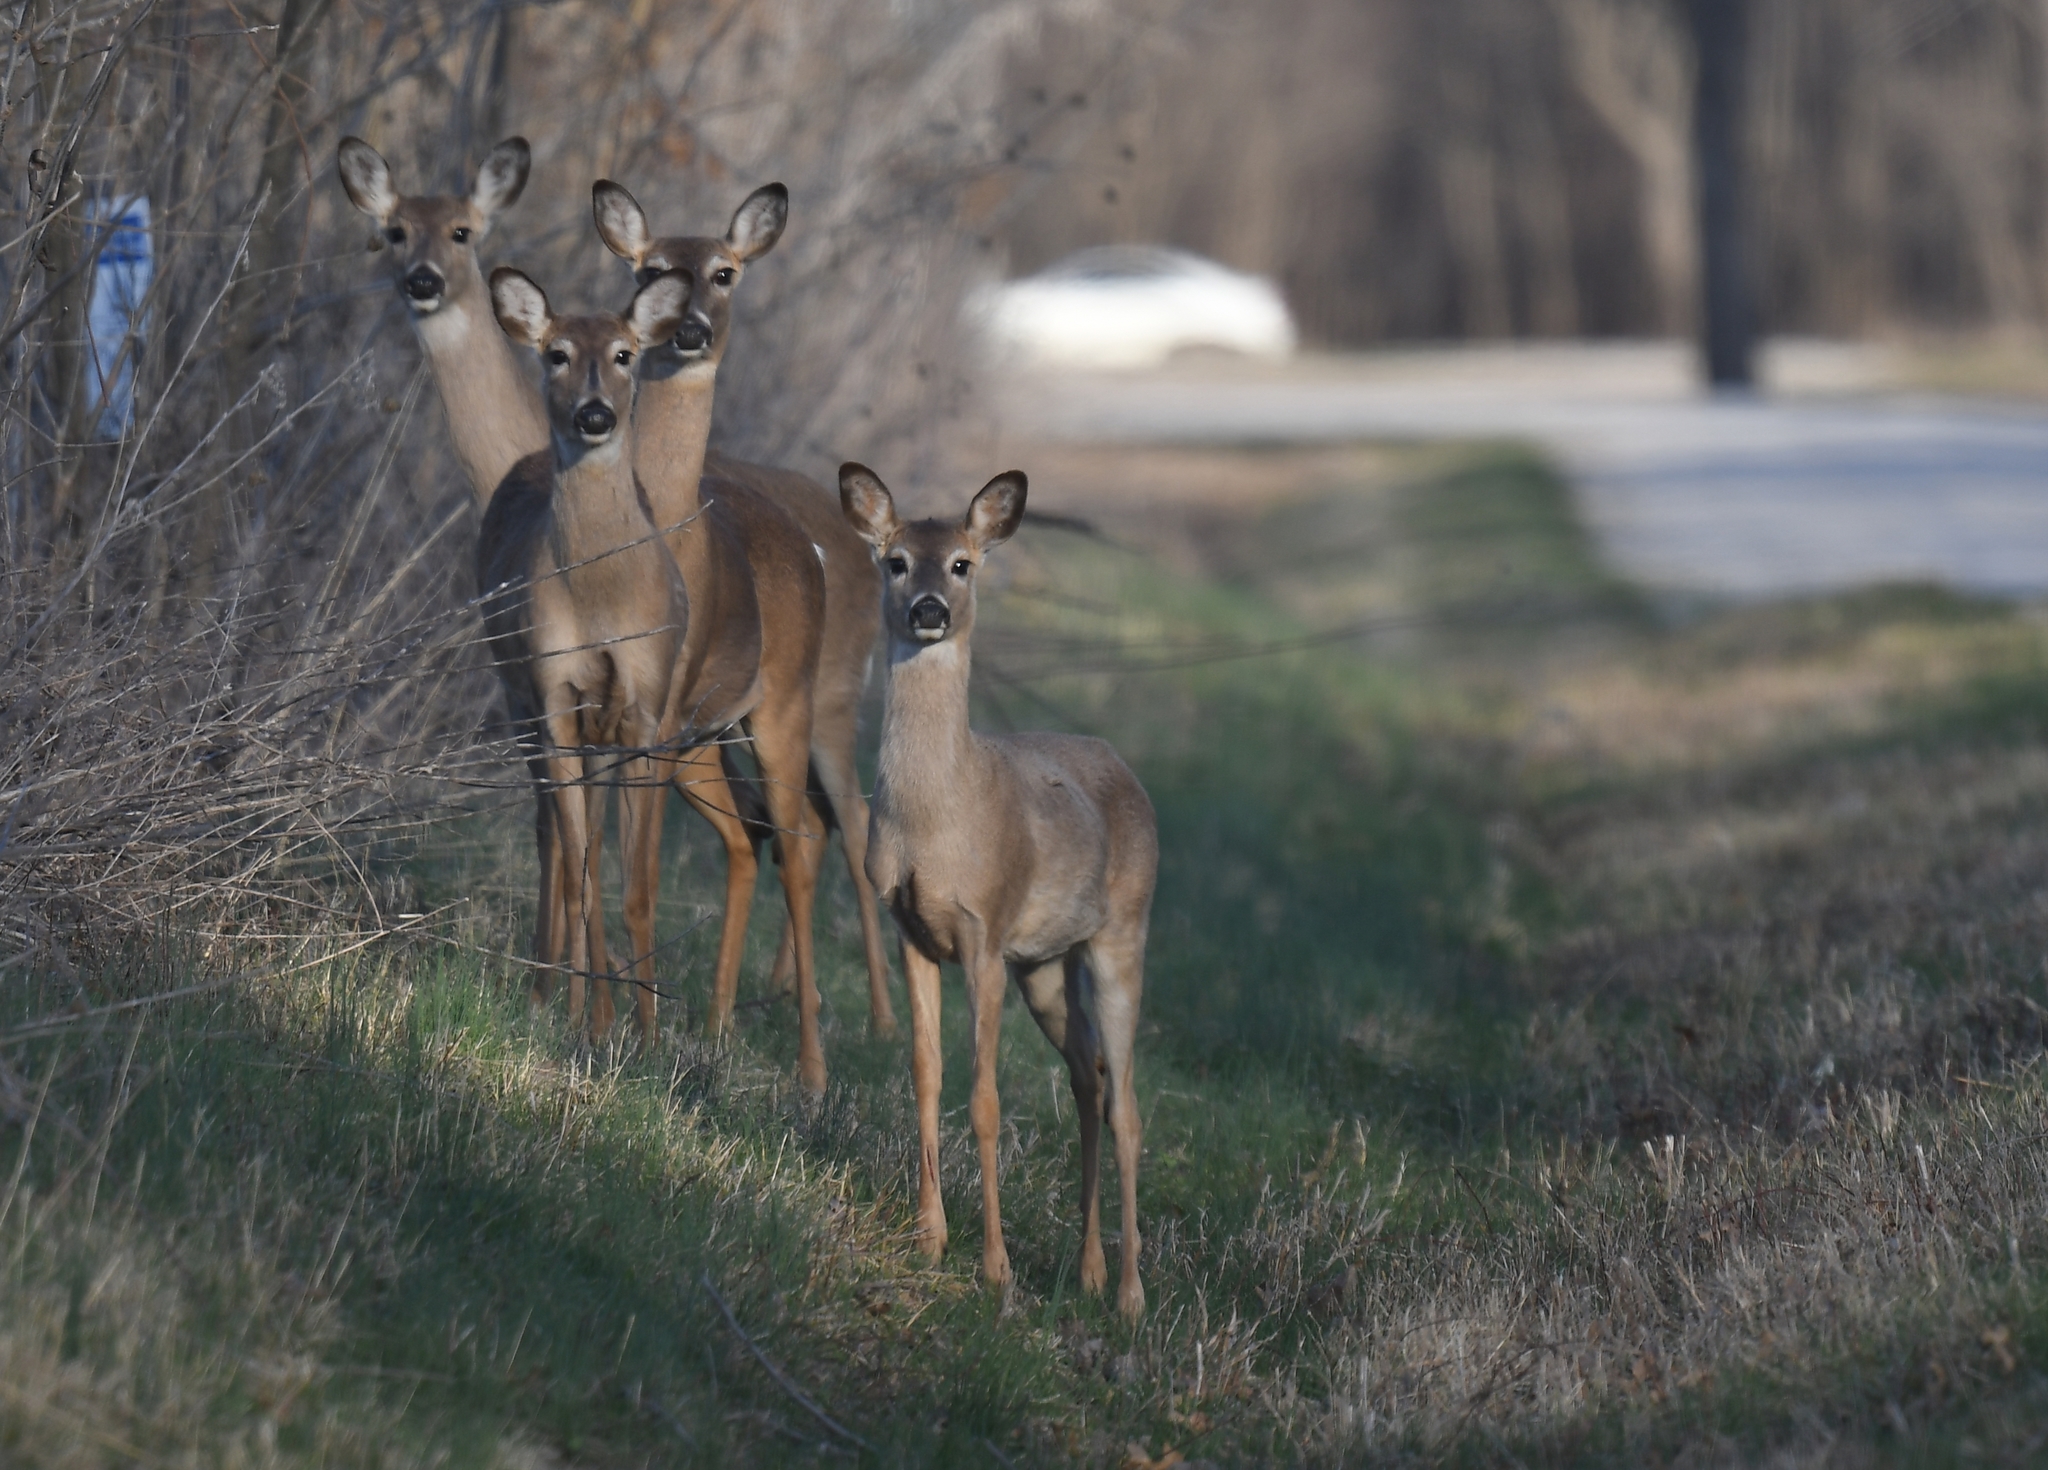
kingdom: Animalia
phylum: Chordata
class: Mammalia
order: Artiodactyla
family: Cervidae
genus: Odocoileus
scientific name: Odocoileus virginianus
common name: White-tailed deer
